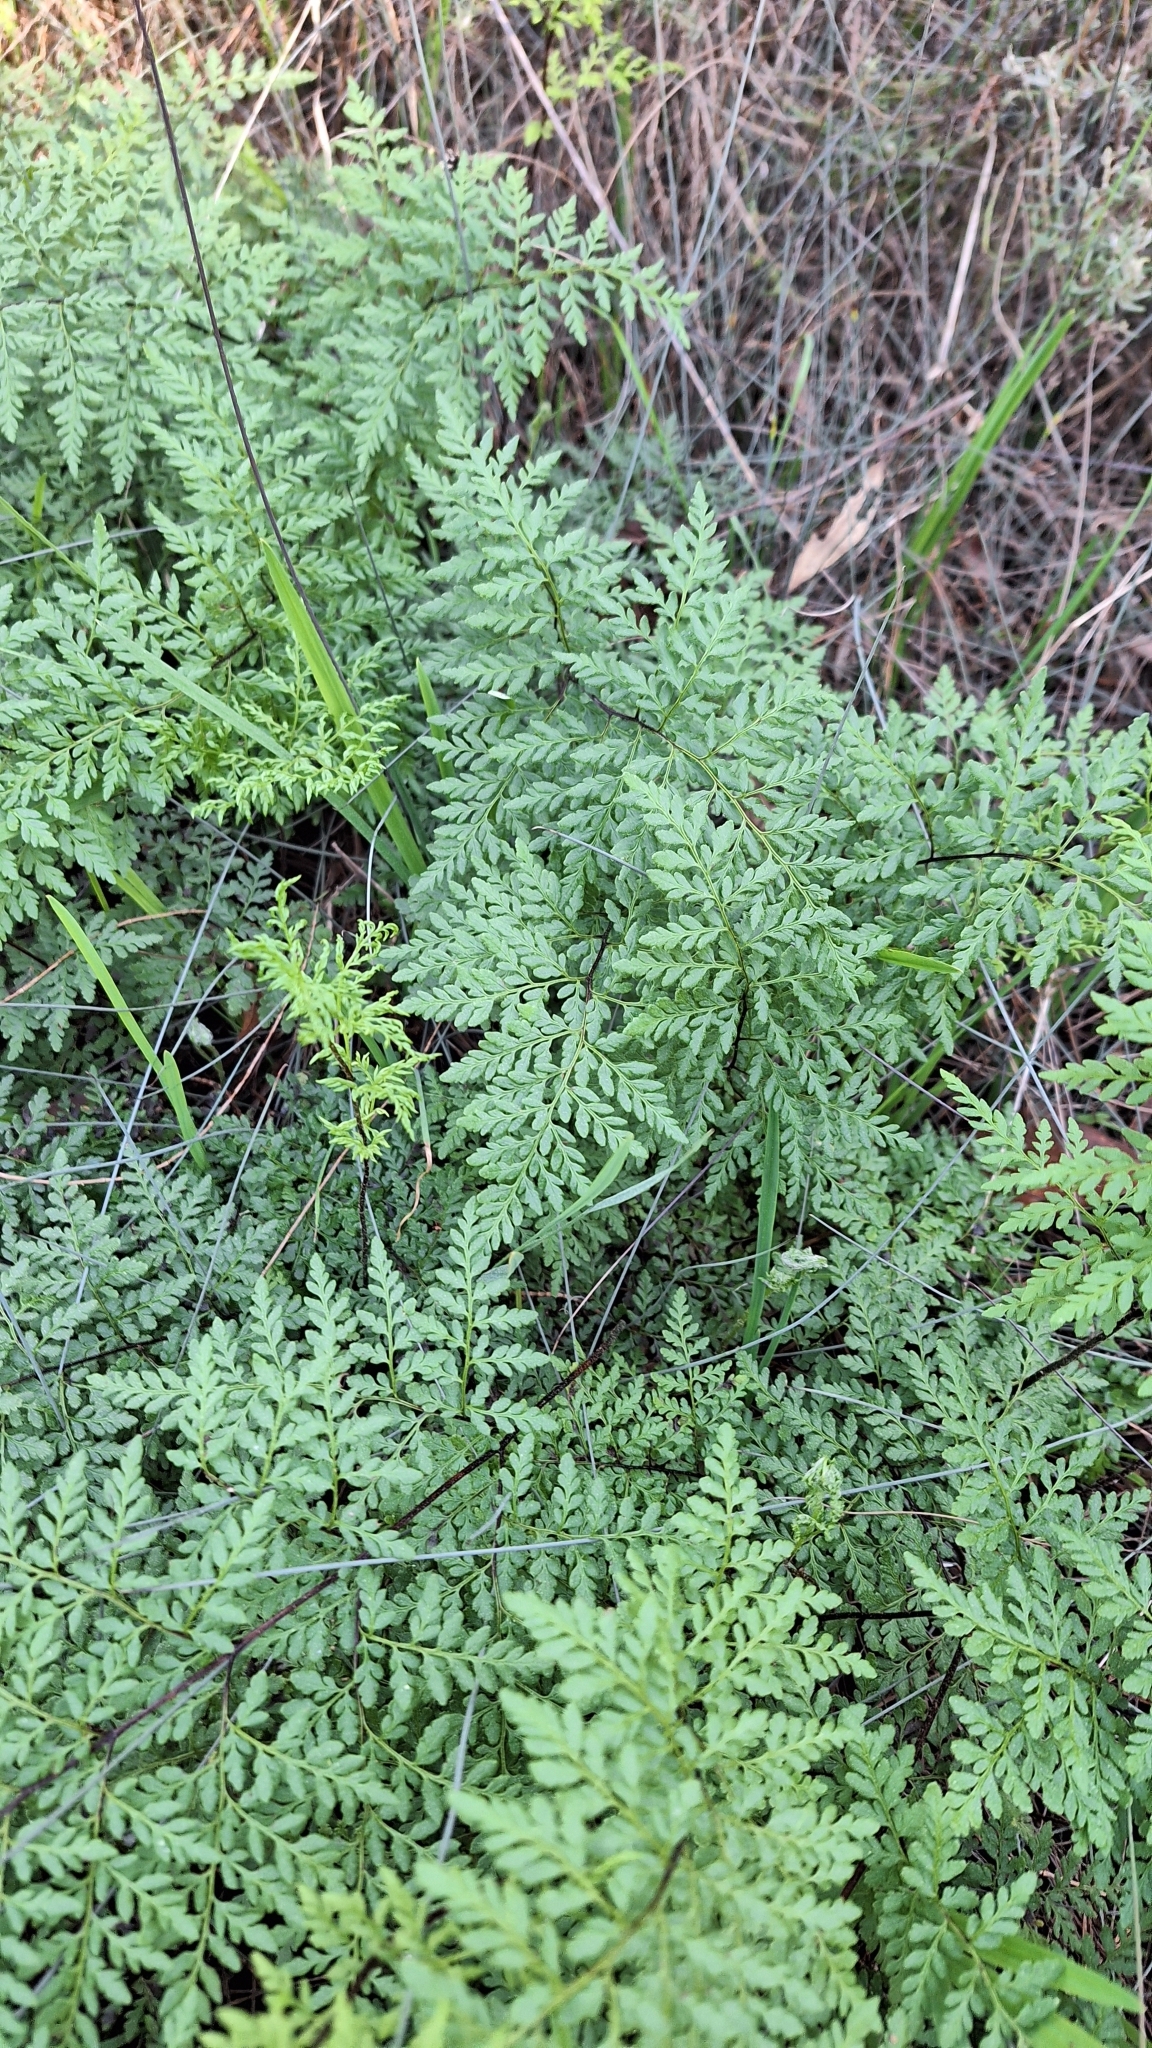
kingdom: Plantae
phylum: Tracheophyta
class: Polypodiopsida
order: Polypodiales
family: Pteridaceae
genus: Cheilanthes
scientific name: Cheilanthes austrotenuifolia
